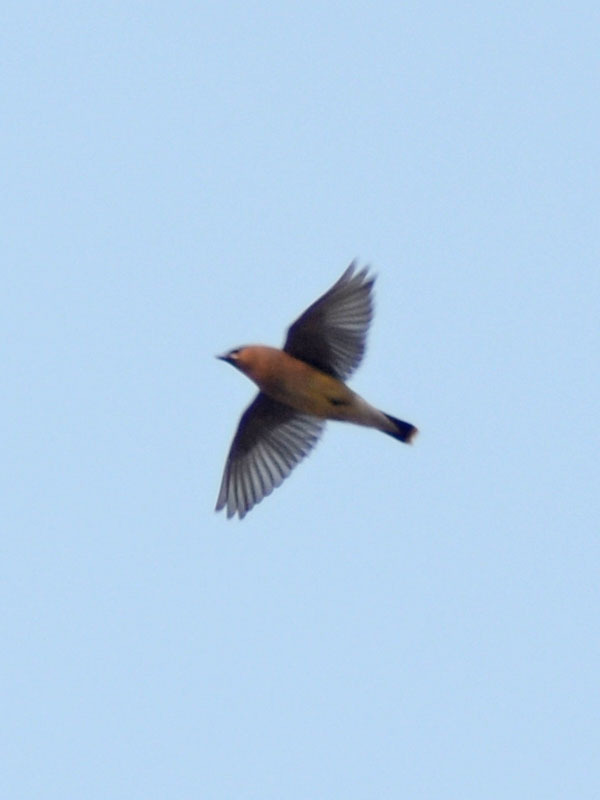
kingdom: Animalia
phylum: Chordata
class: Aves
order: Passeriformes
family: Bombycillidae
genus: Bombycilla
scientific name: Bombycilla cedrorum
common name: Cedar waxwing
